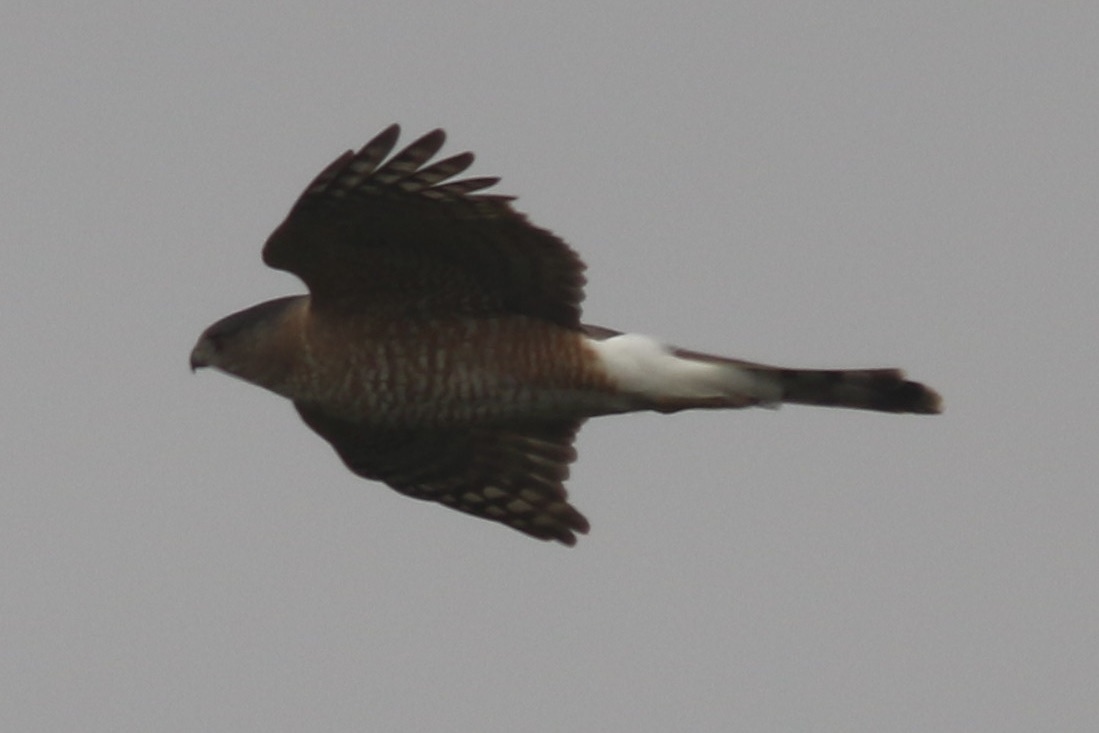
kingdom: Animalia
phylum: Chordata
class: Aves
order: Accipitriformes
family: Accipitridae
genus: Accipiter
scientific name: Accipiter cooperii
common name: Cooper's hawk
